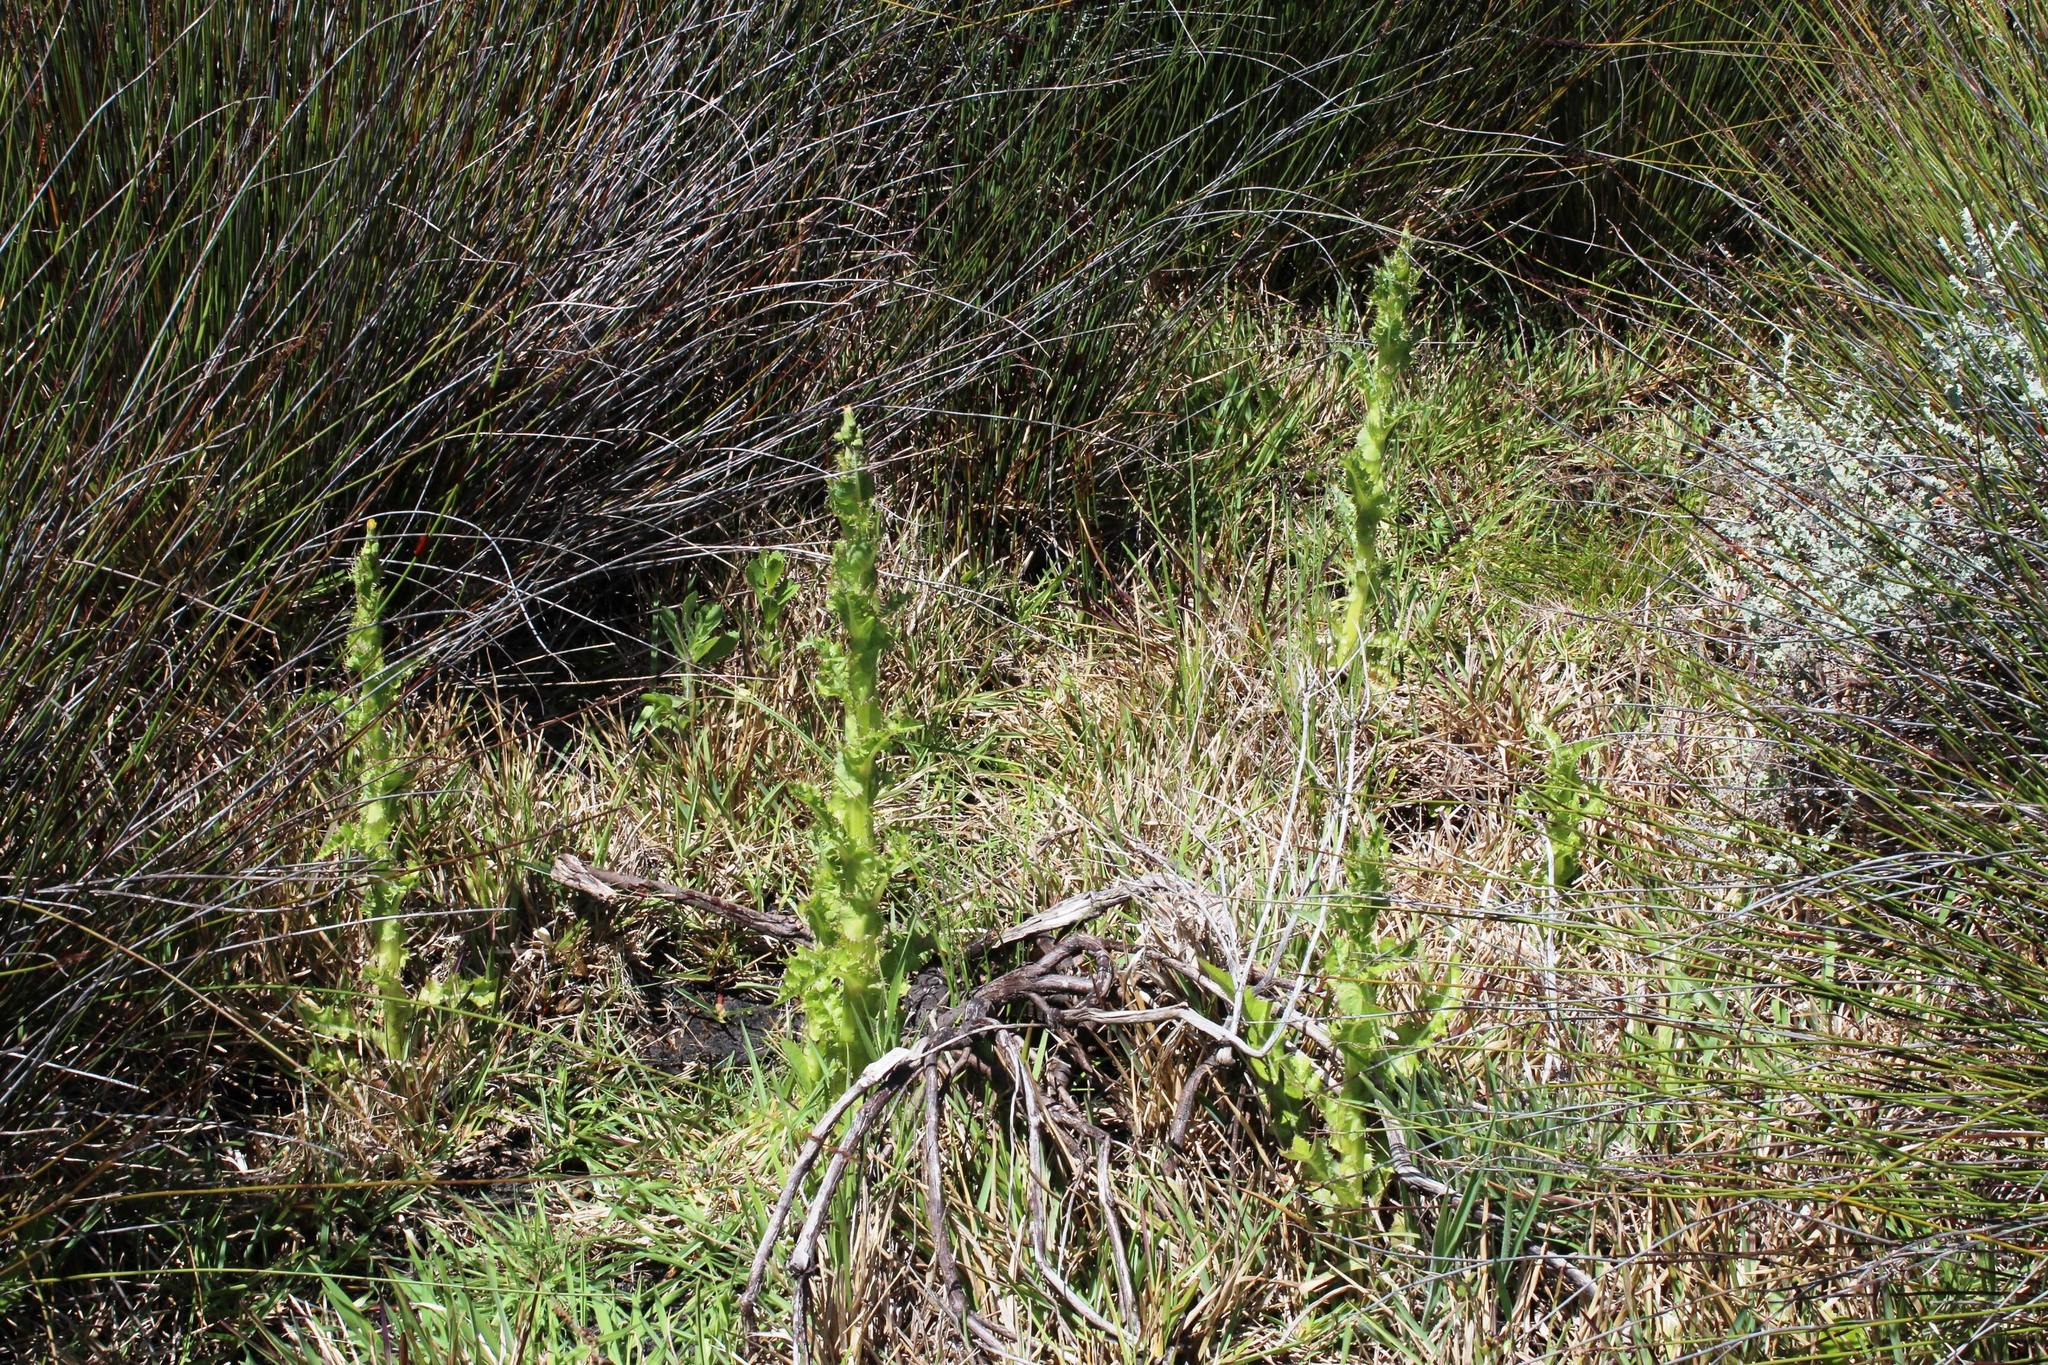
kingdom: Plantae
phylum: Tracheophyta
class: Magnoliopsida
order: Asterales
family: Asteraceae
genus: Sonchus
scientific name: Sonchus asper
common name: Prickly sow-thistle
